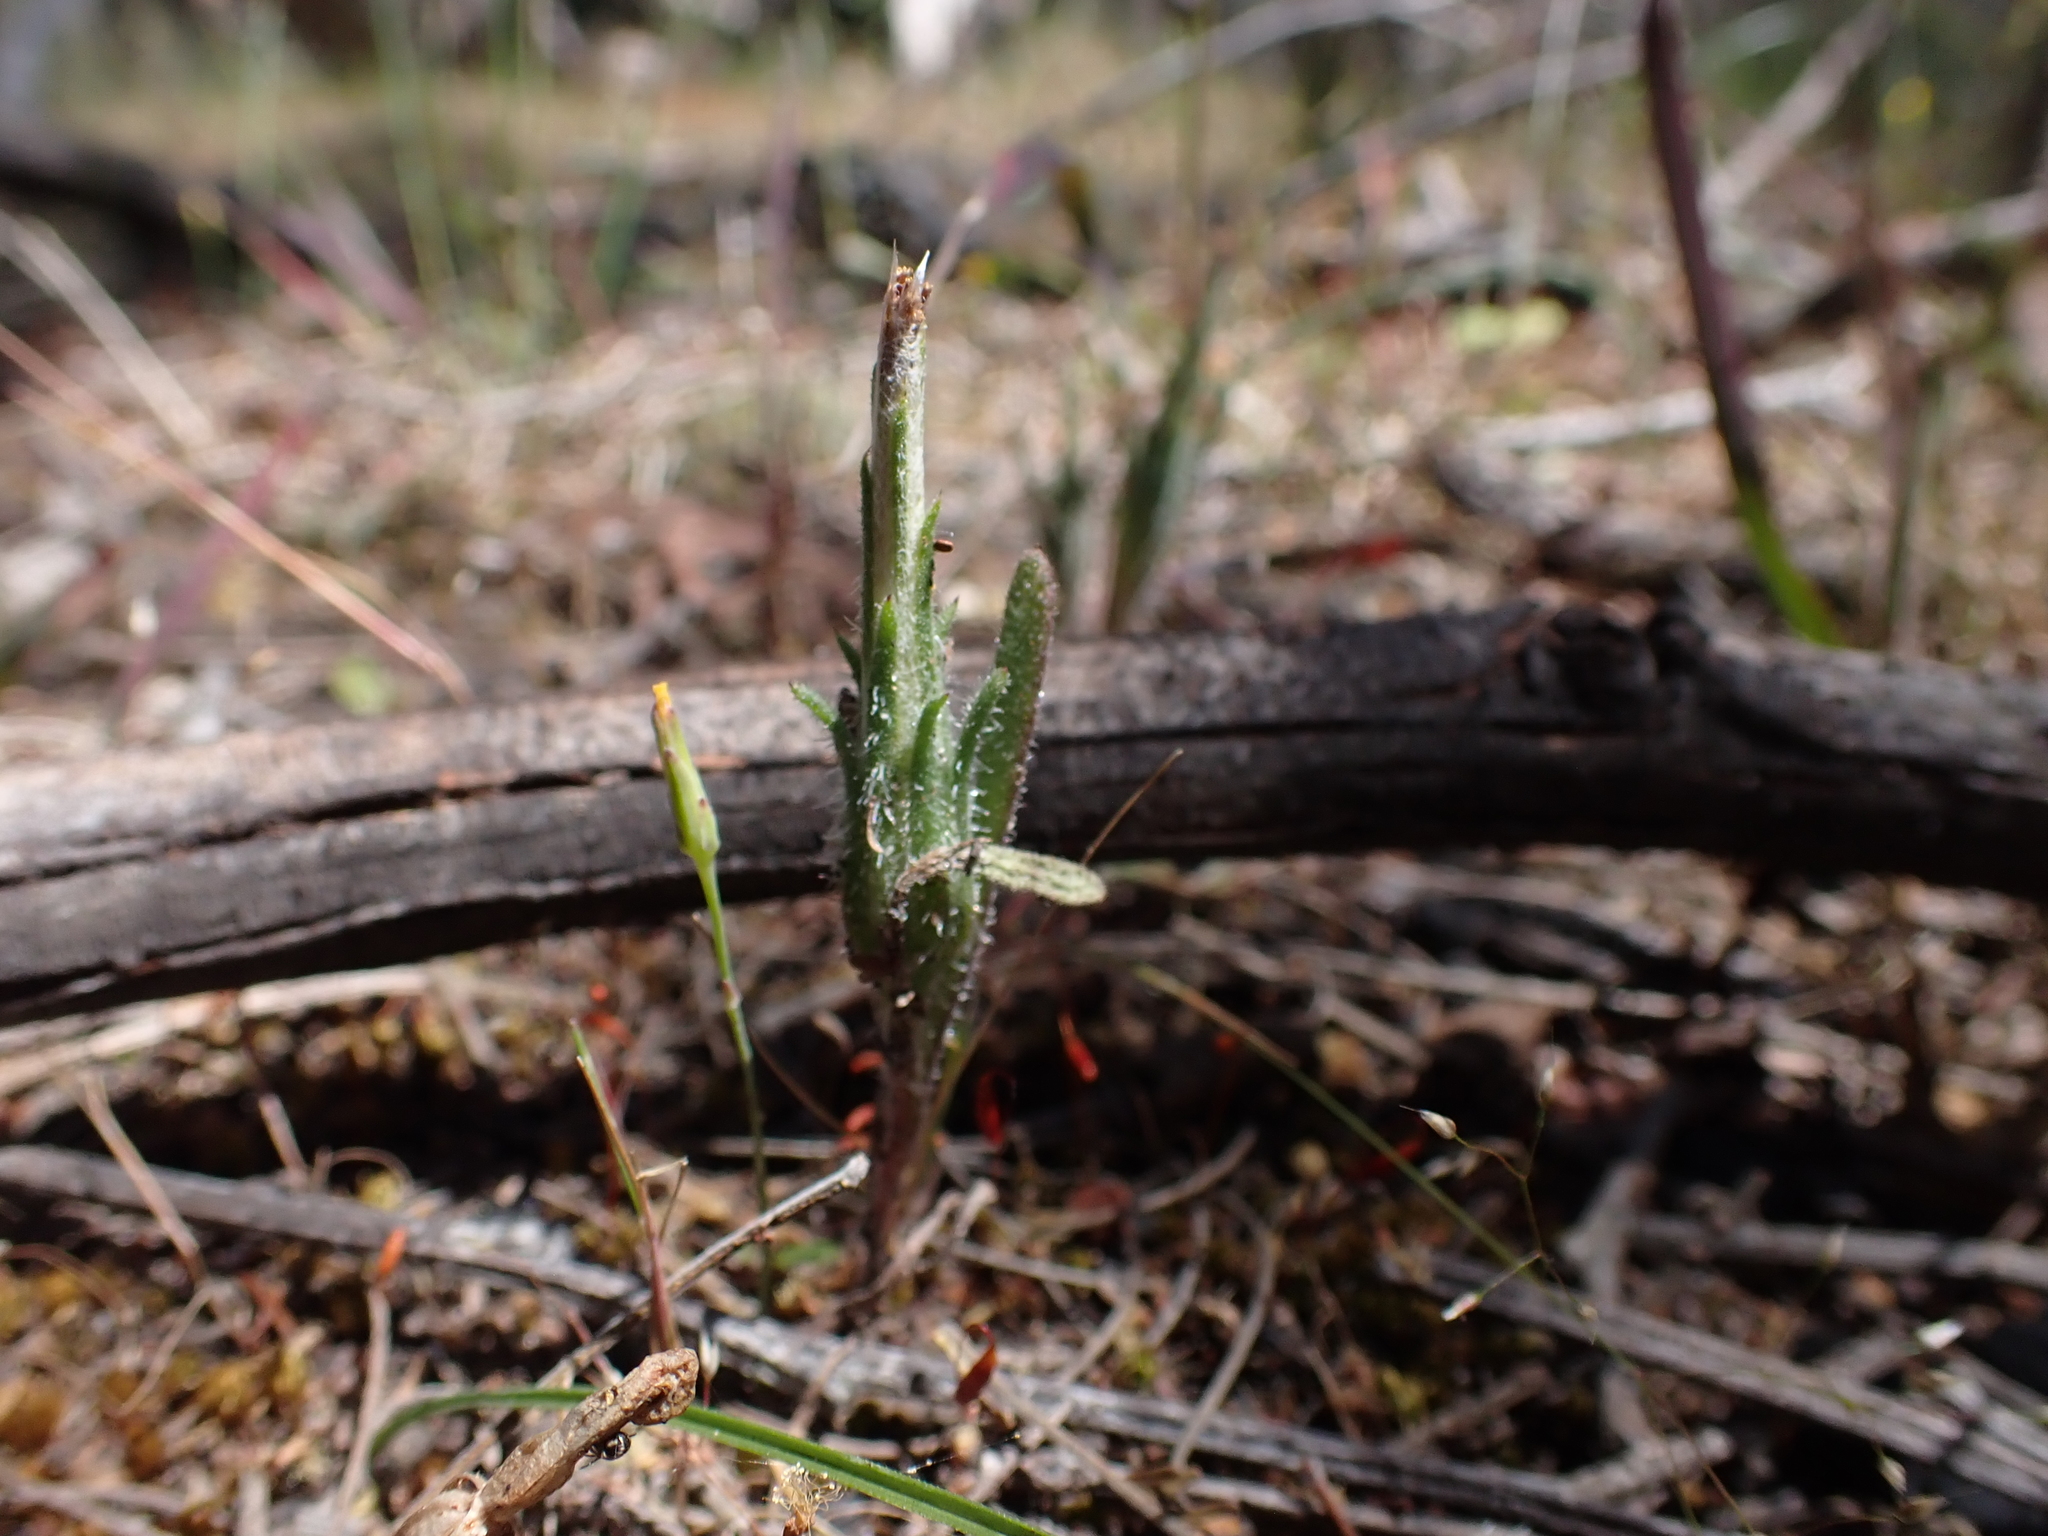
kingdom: Plantae
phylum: Tracheophyta
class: Magnoliopsida
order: Asterales
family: Asteraceae
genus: Podotheca
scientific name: Podotheca angustifolia
